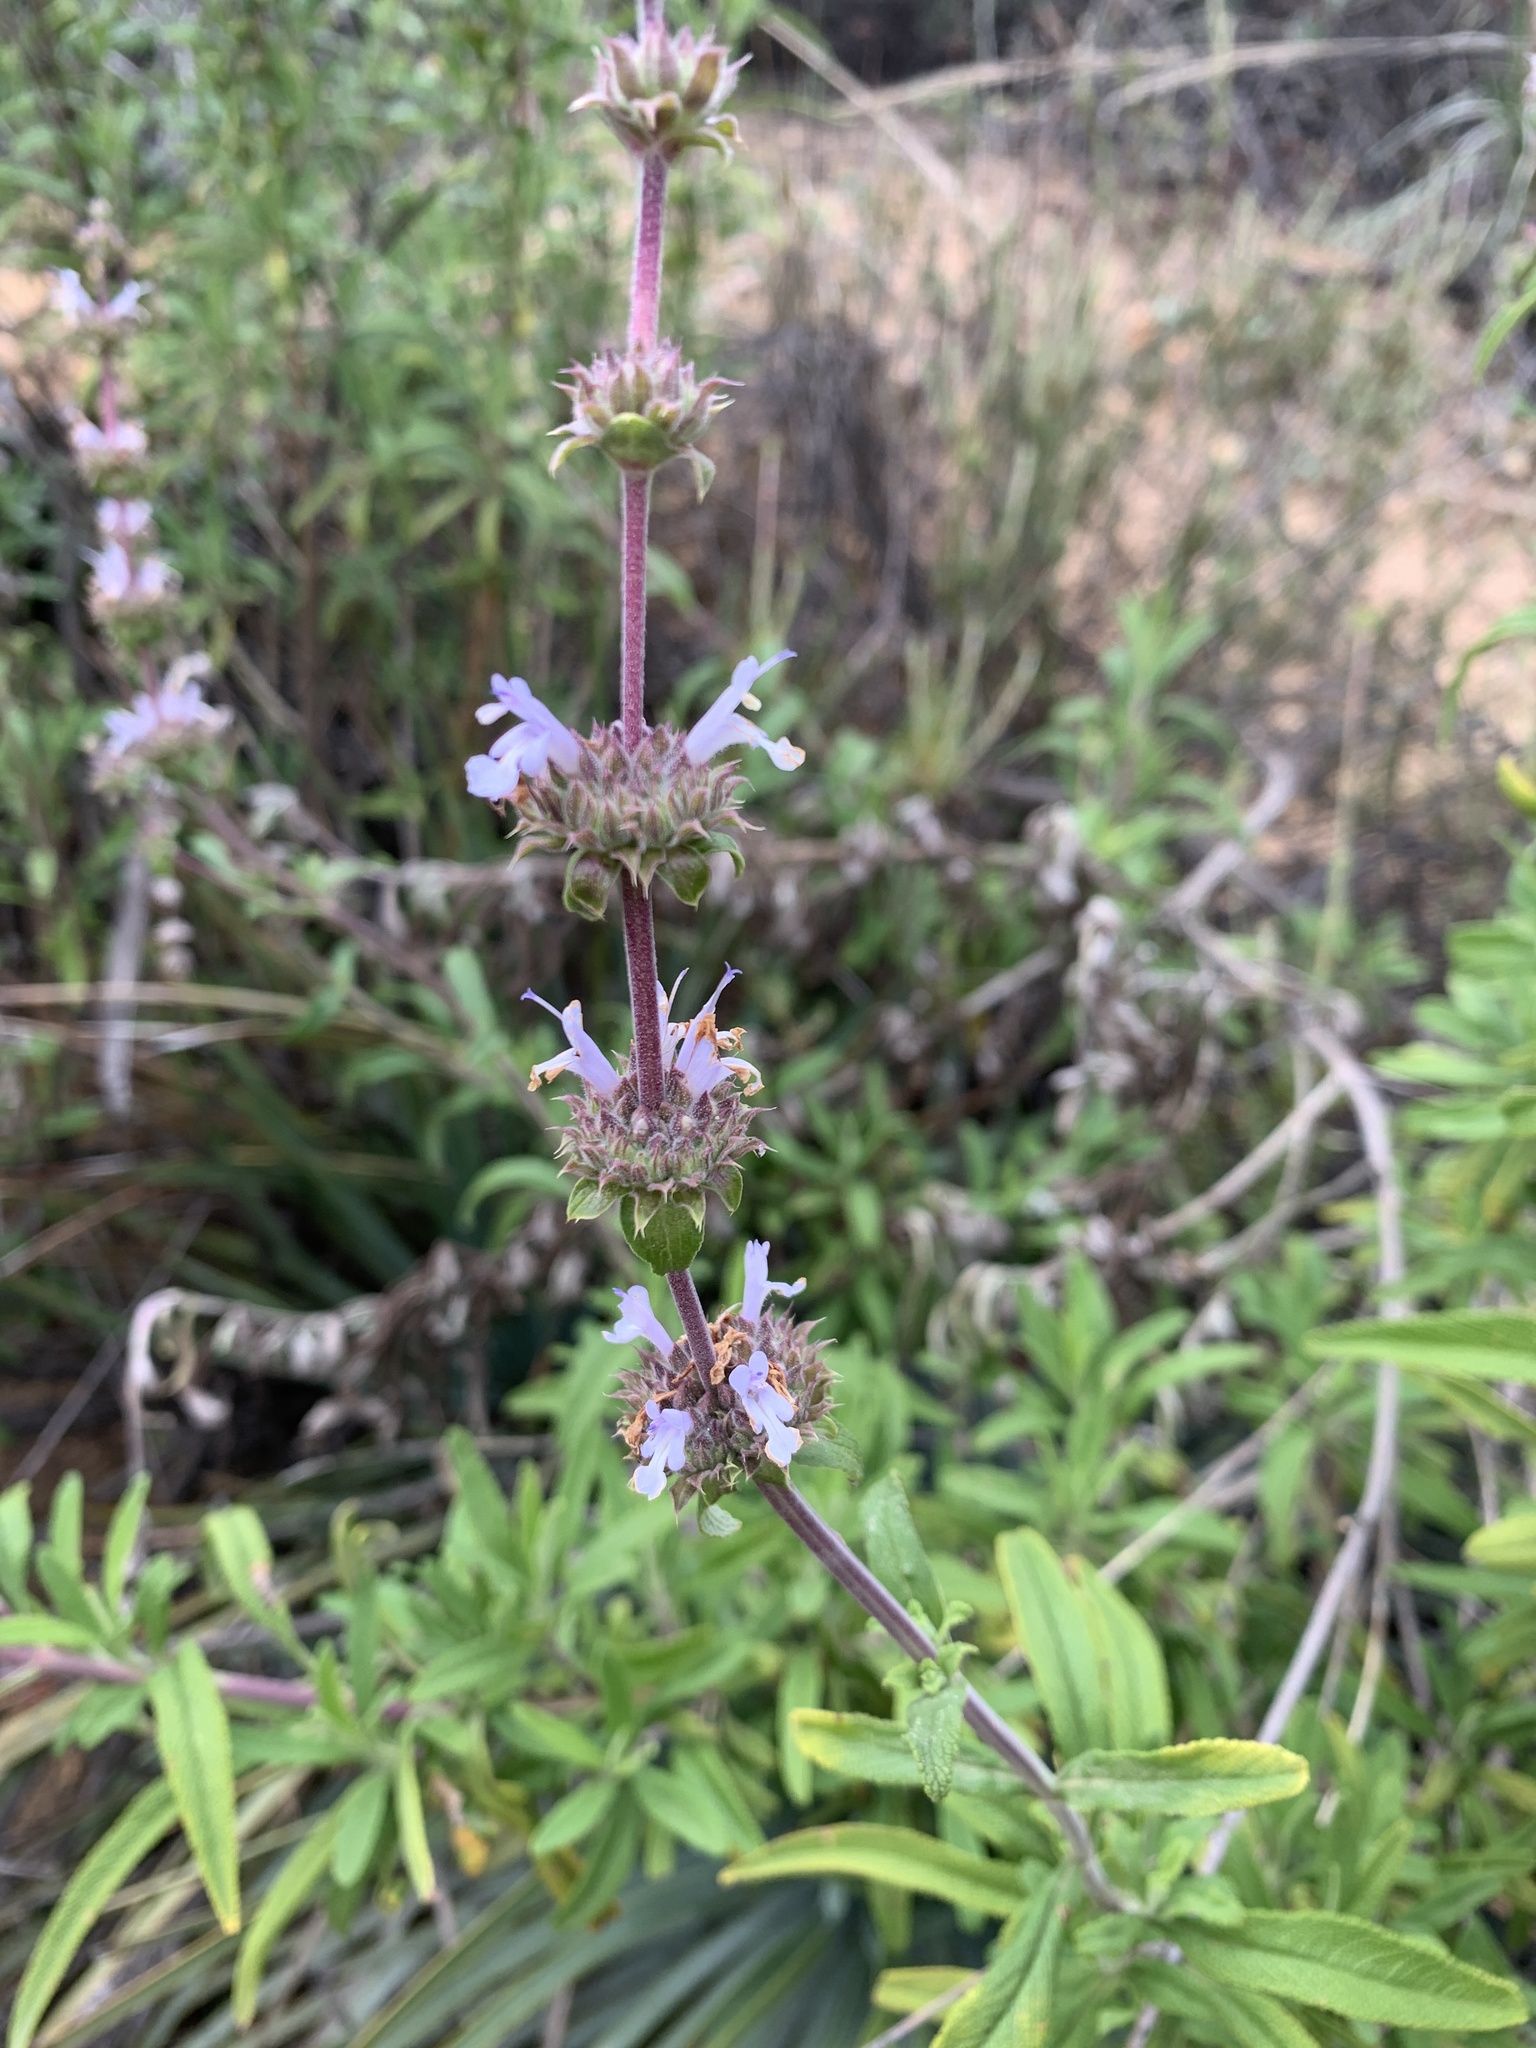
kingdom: Plantae
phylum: Tracheophyta
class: Magnoliopsida
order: Lamiales
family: Lamiaceae
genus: Salvia
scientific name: Salvia mellifera
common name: Black sage
